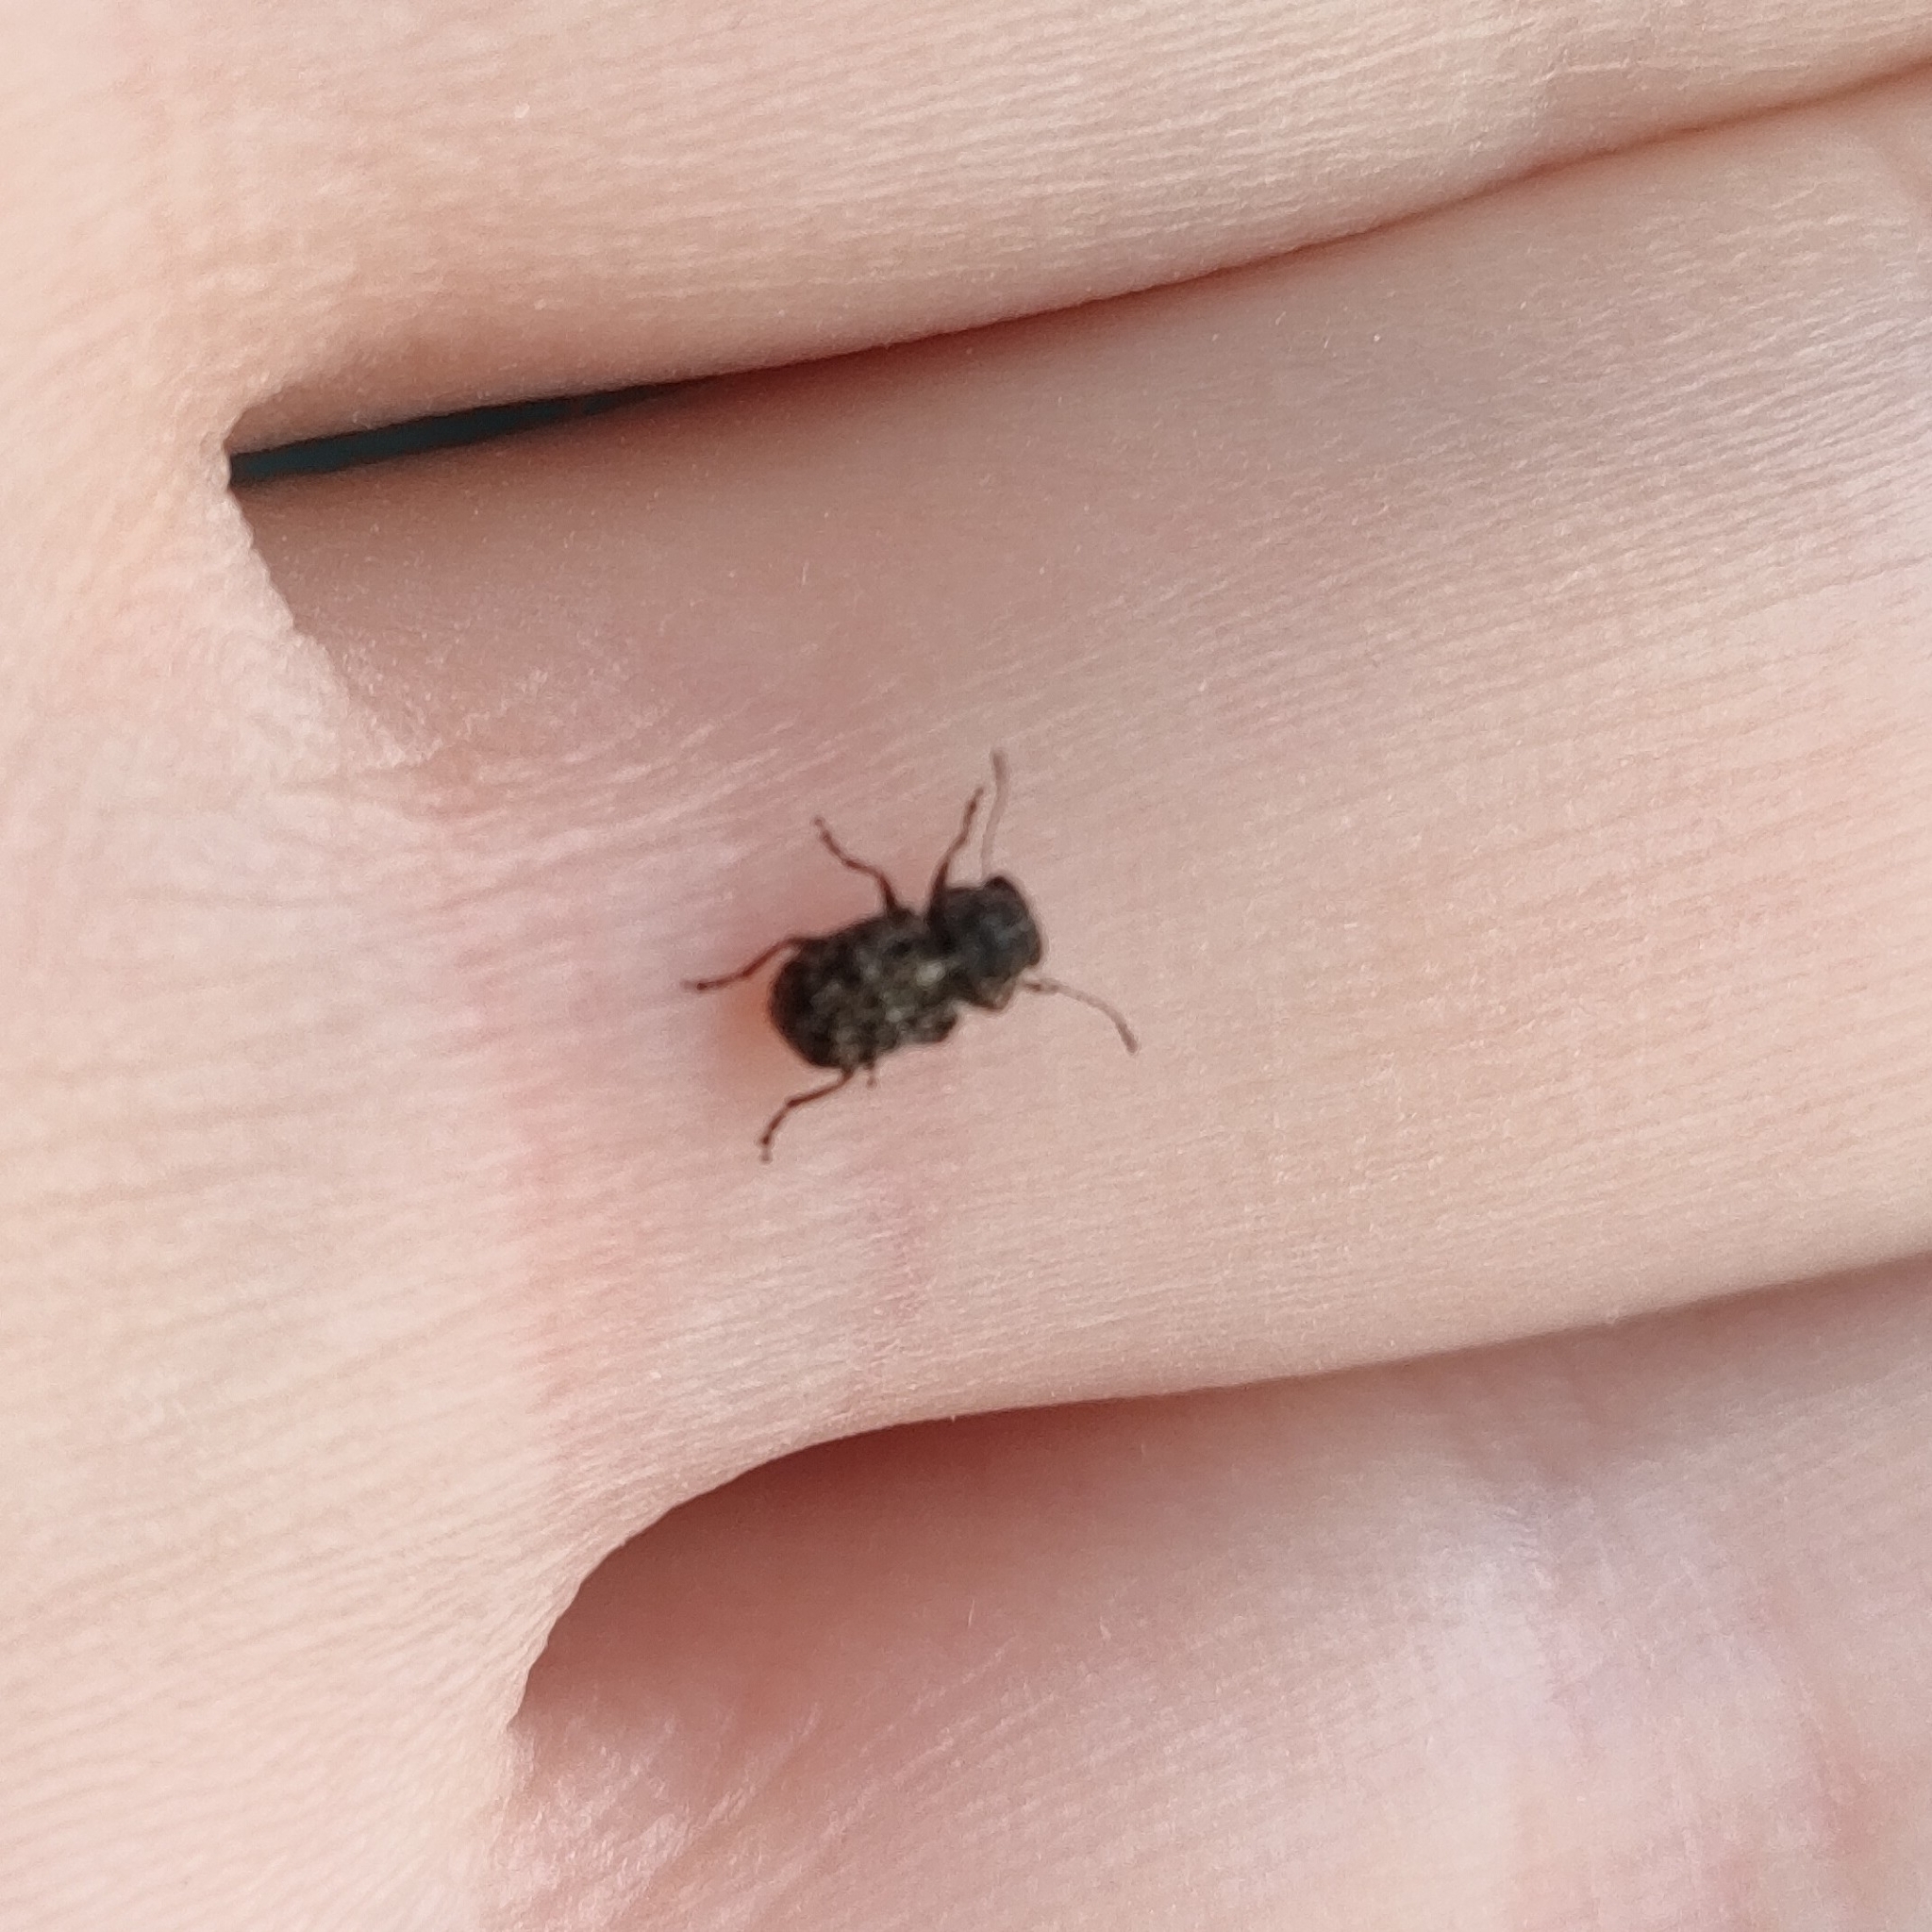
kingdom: Animalia
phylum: Arthropoda
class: Insecta
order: Coleoptera
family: Anthribidae
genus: Exechesops
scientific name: Exechesops foliatus
